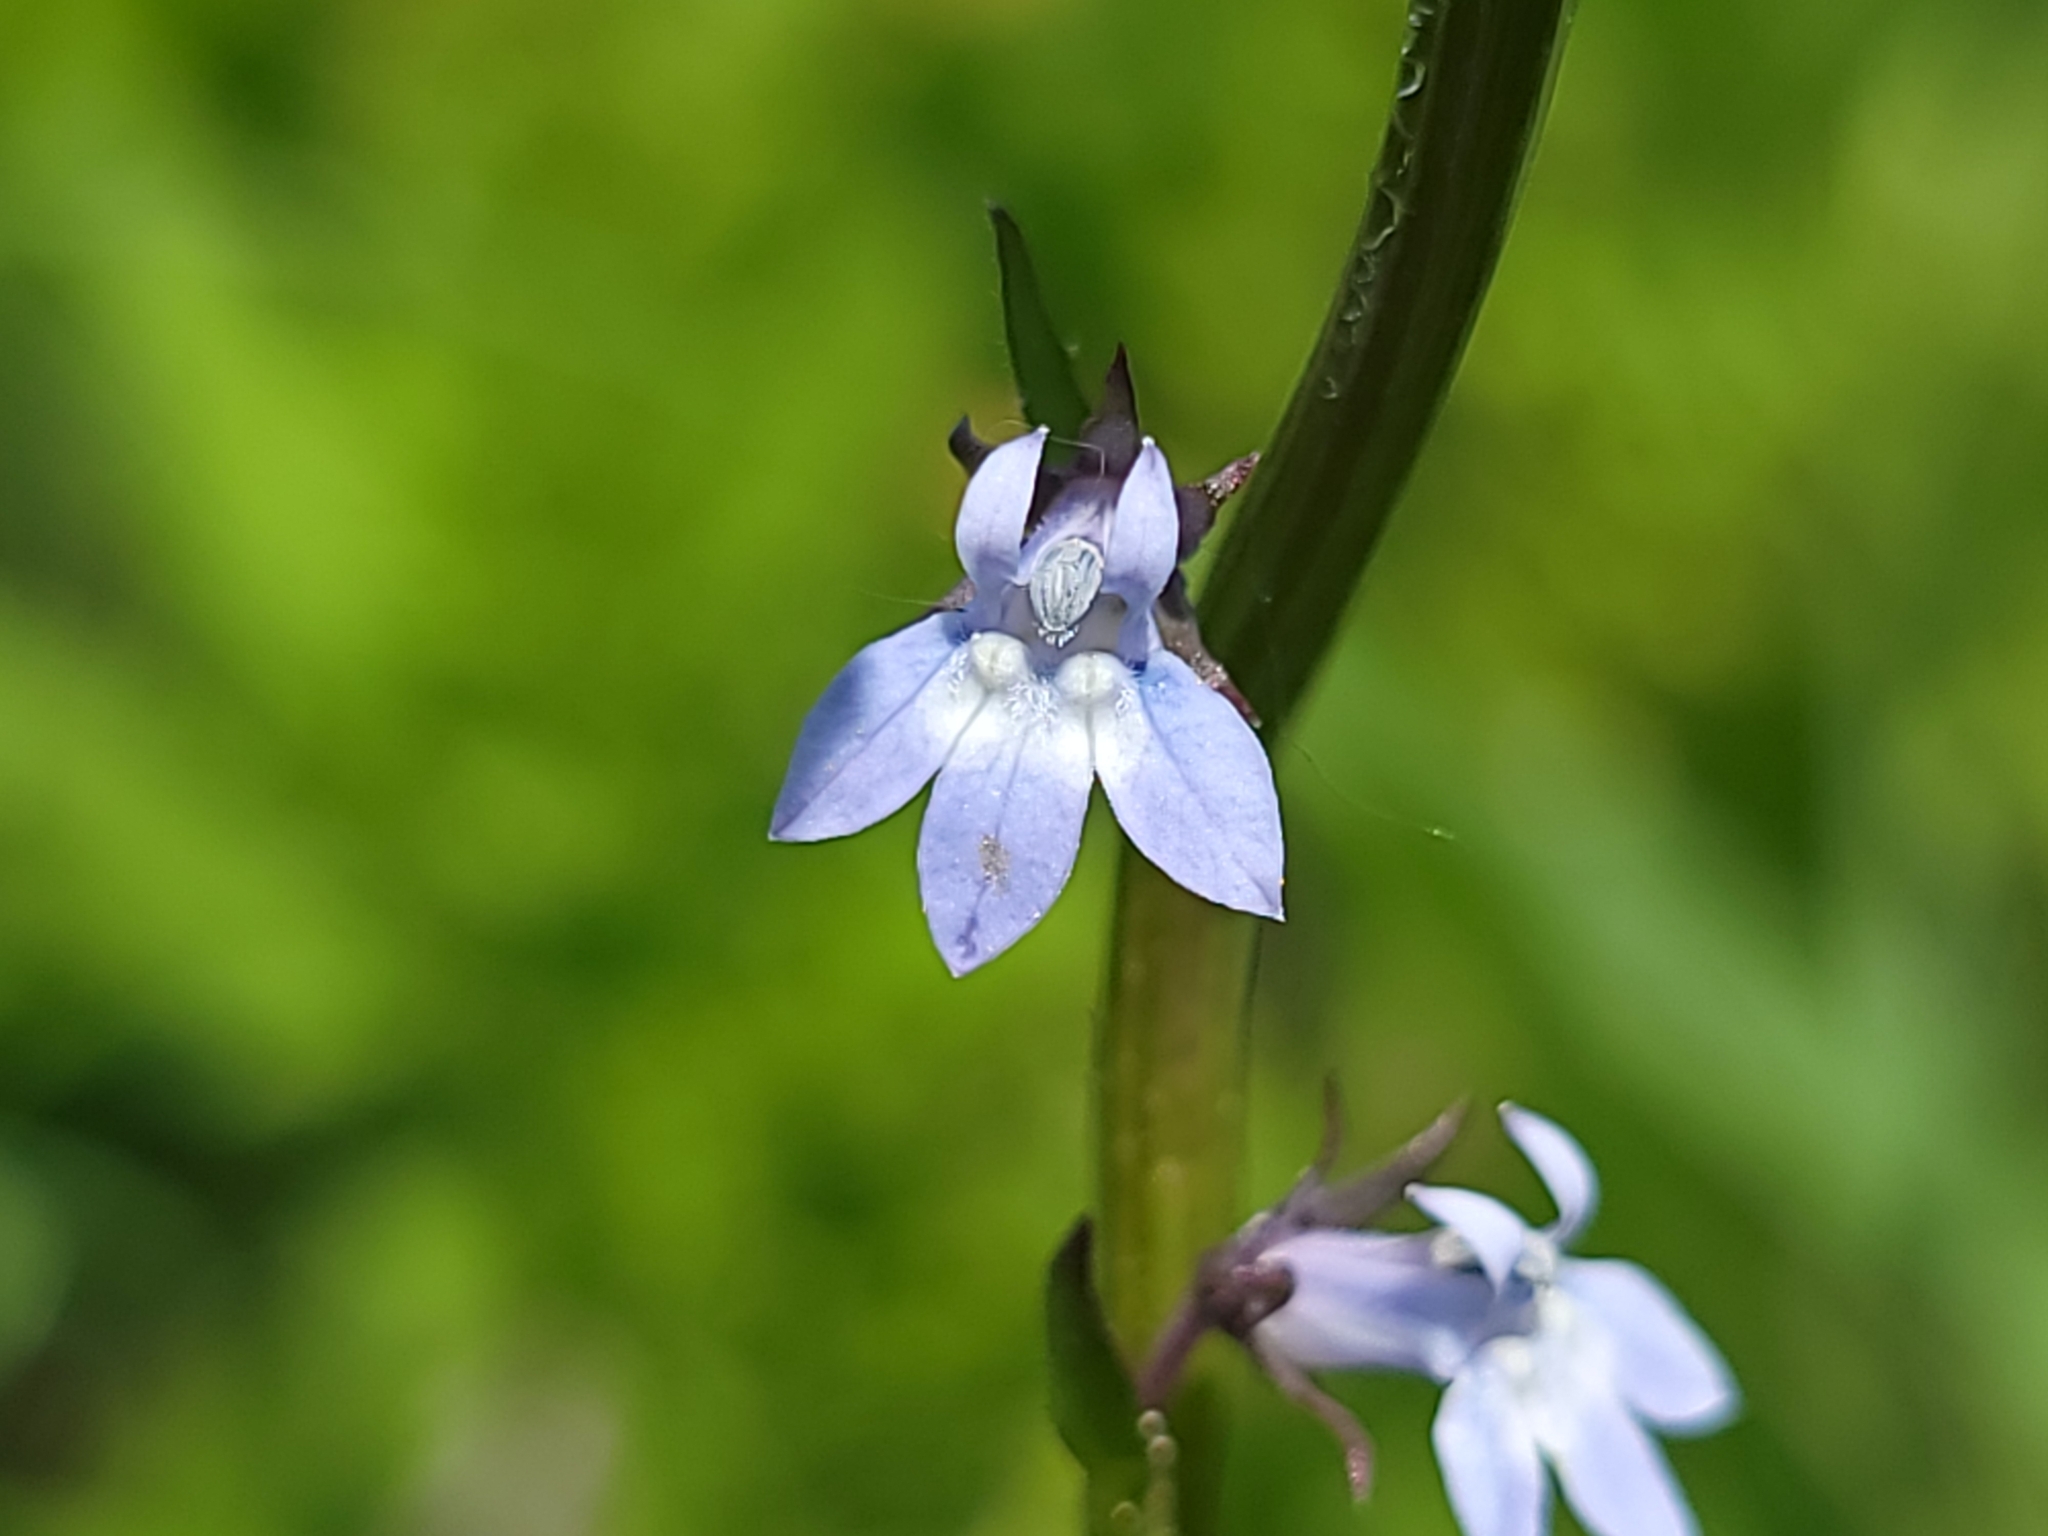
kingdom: Plantae
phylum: Tracheophyta
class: Magnoliopsida
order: Asterales
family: Campanulaceae
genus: Lobelia
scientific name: Lobelia spicata
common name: Pale-spike lobelia
